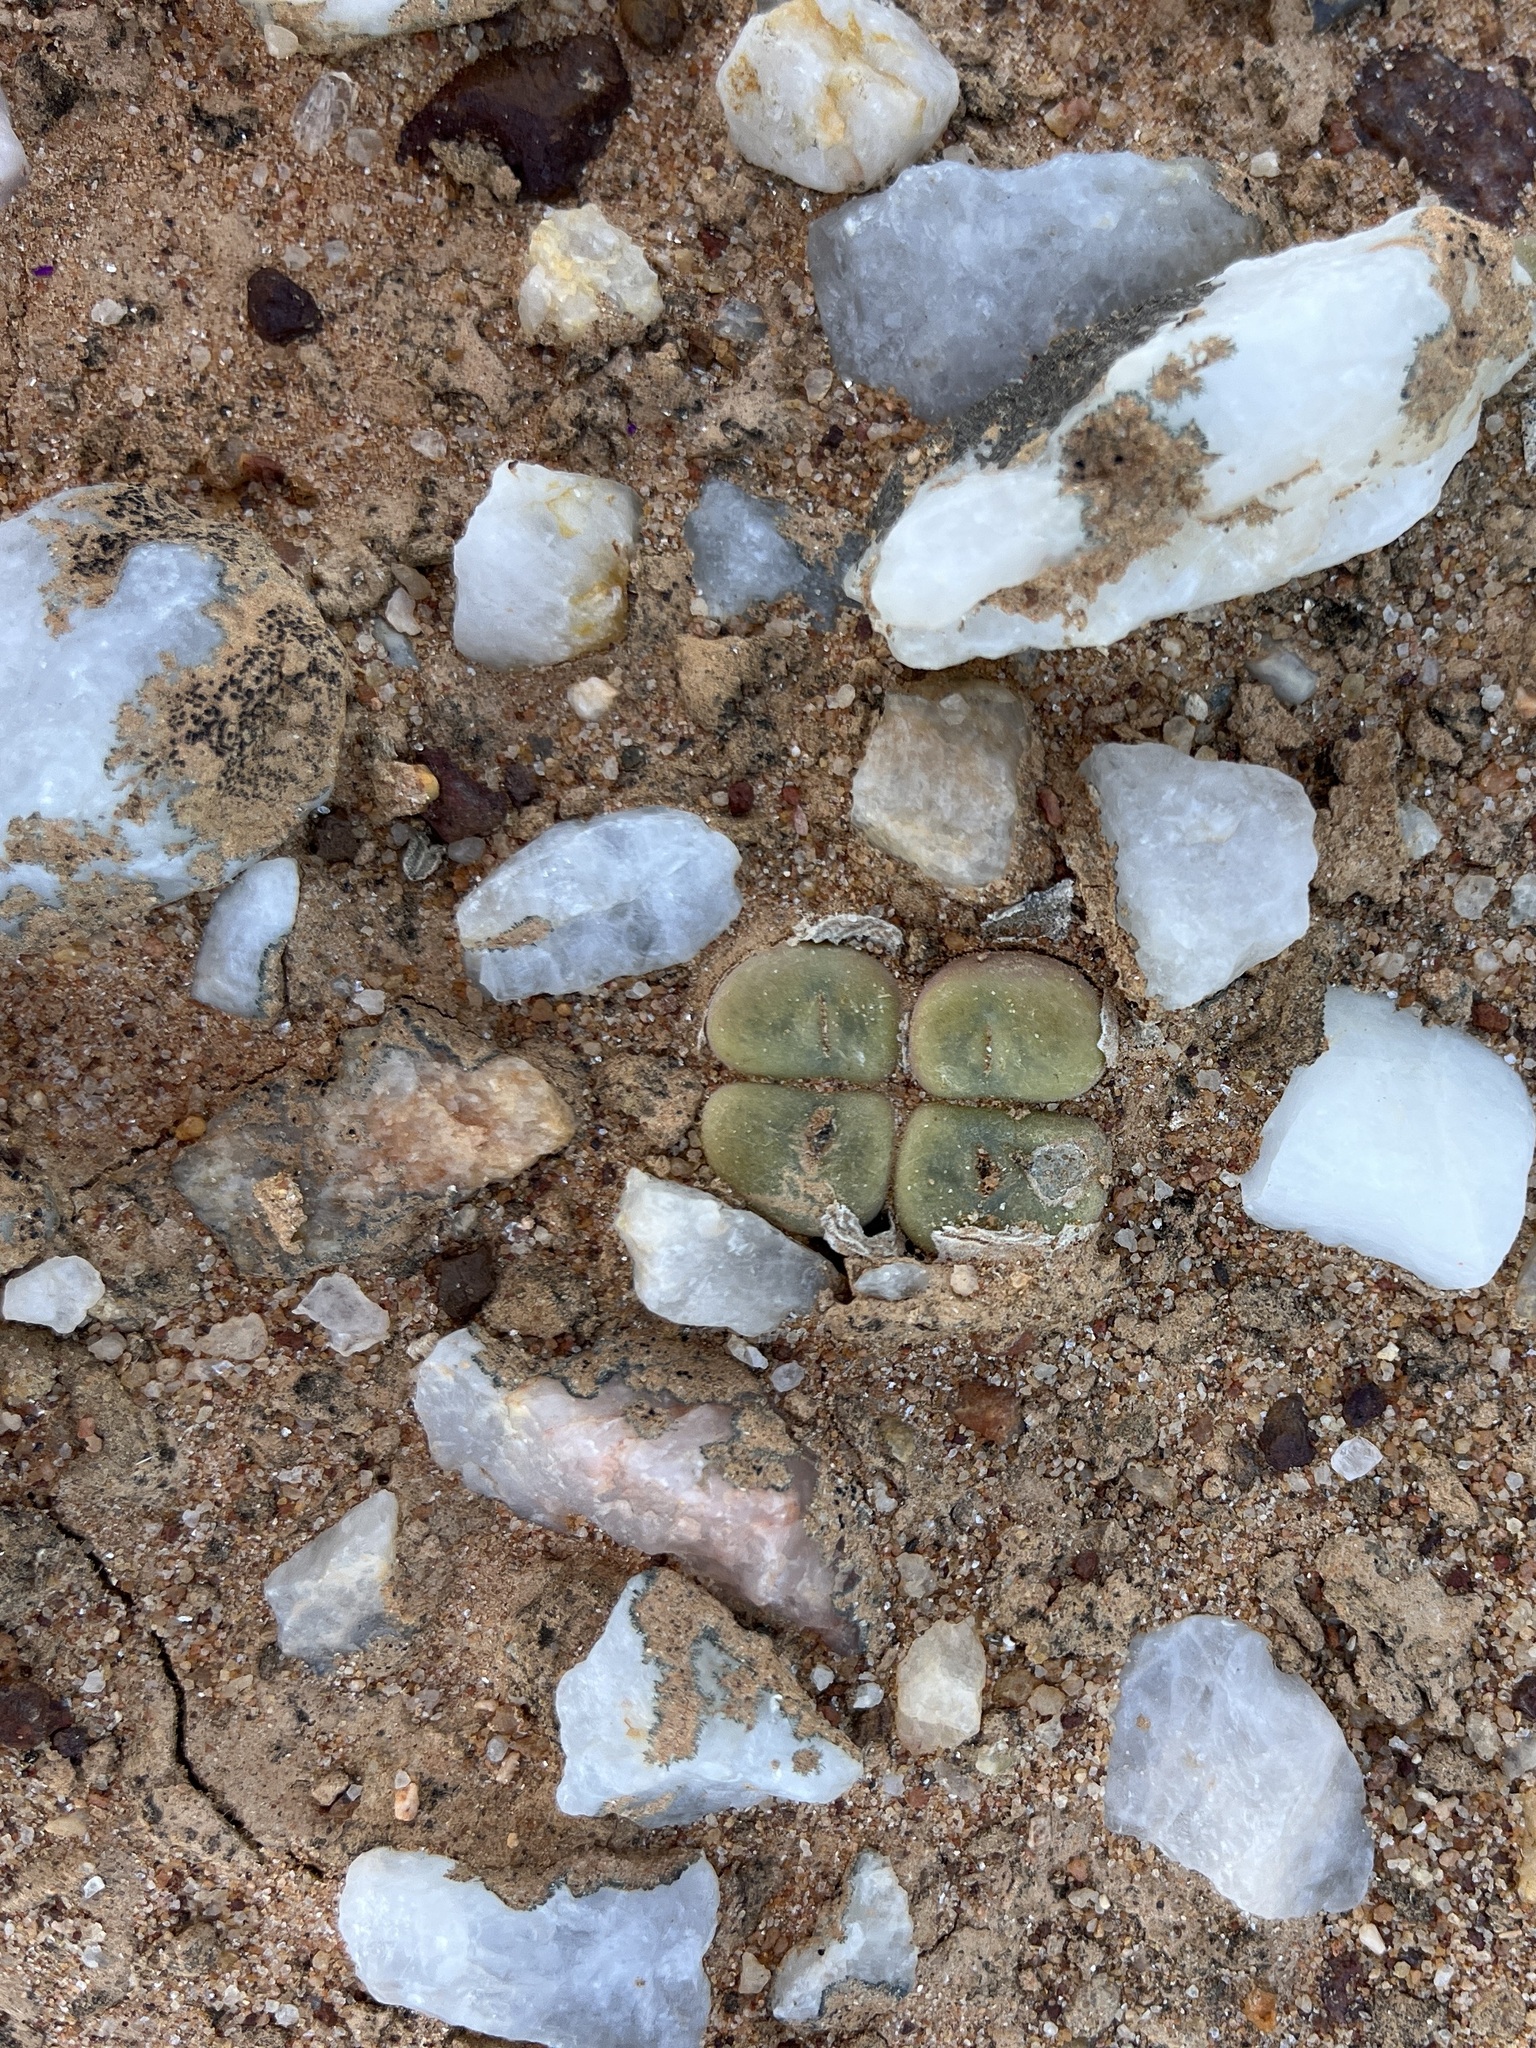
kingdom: Plantae
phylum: Tracheophyta
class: Magnoliopsida
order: Caryophyllales
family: Aizoaceae
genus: Conophytum
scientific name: Conophytum concavum
